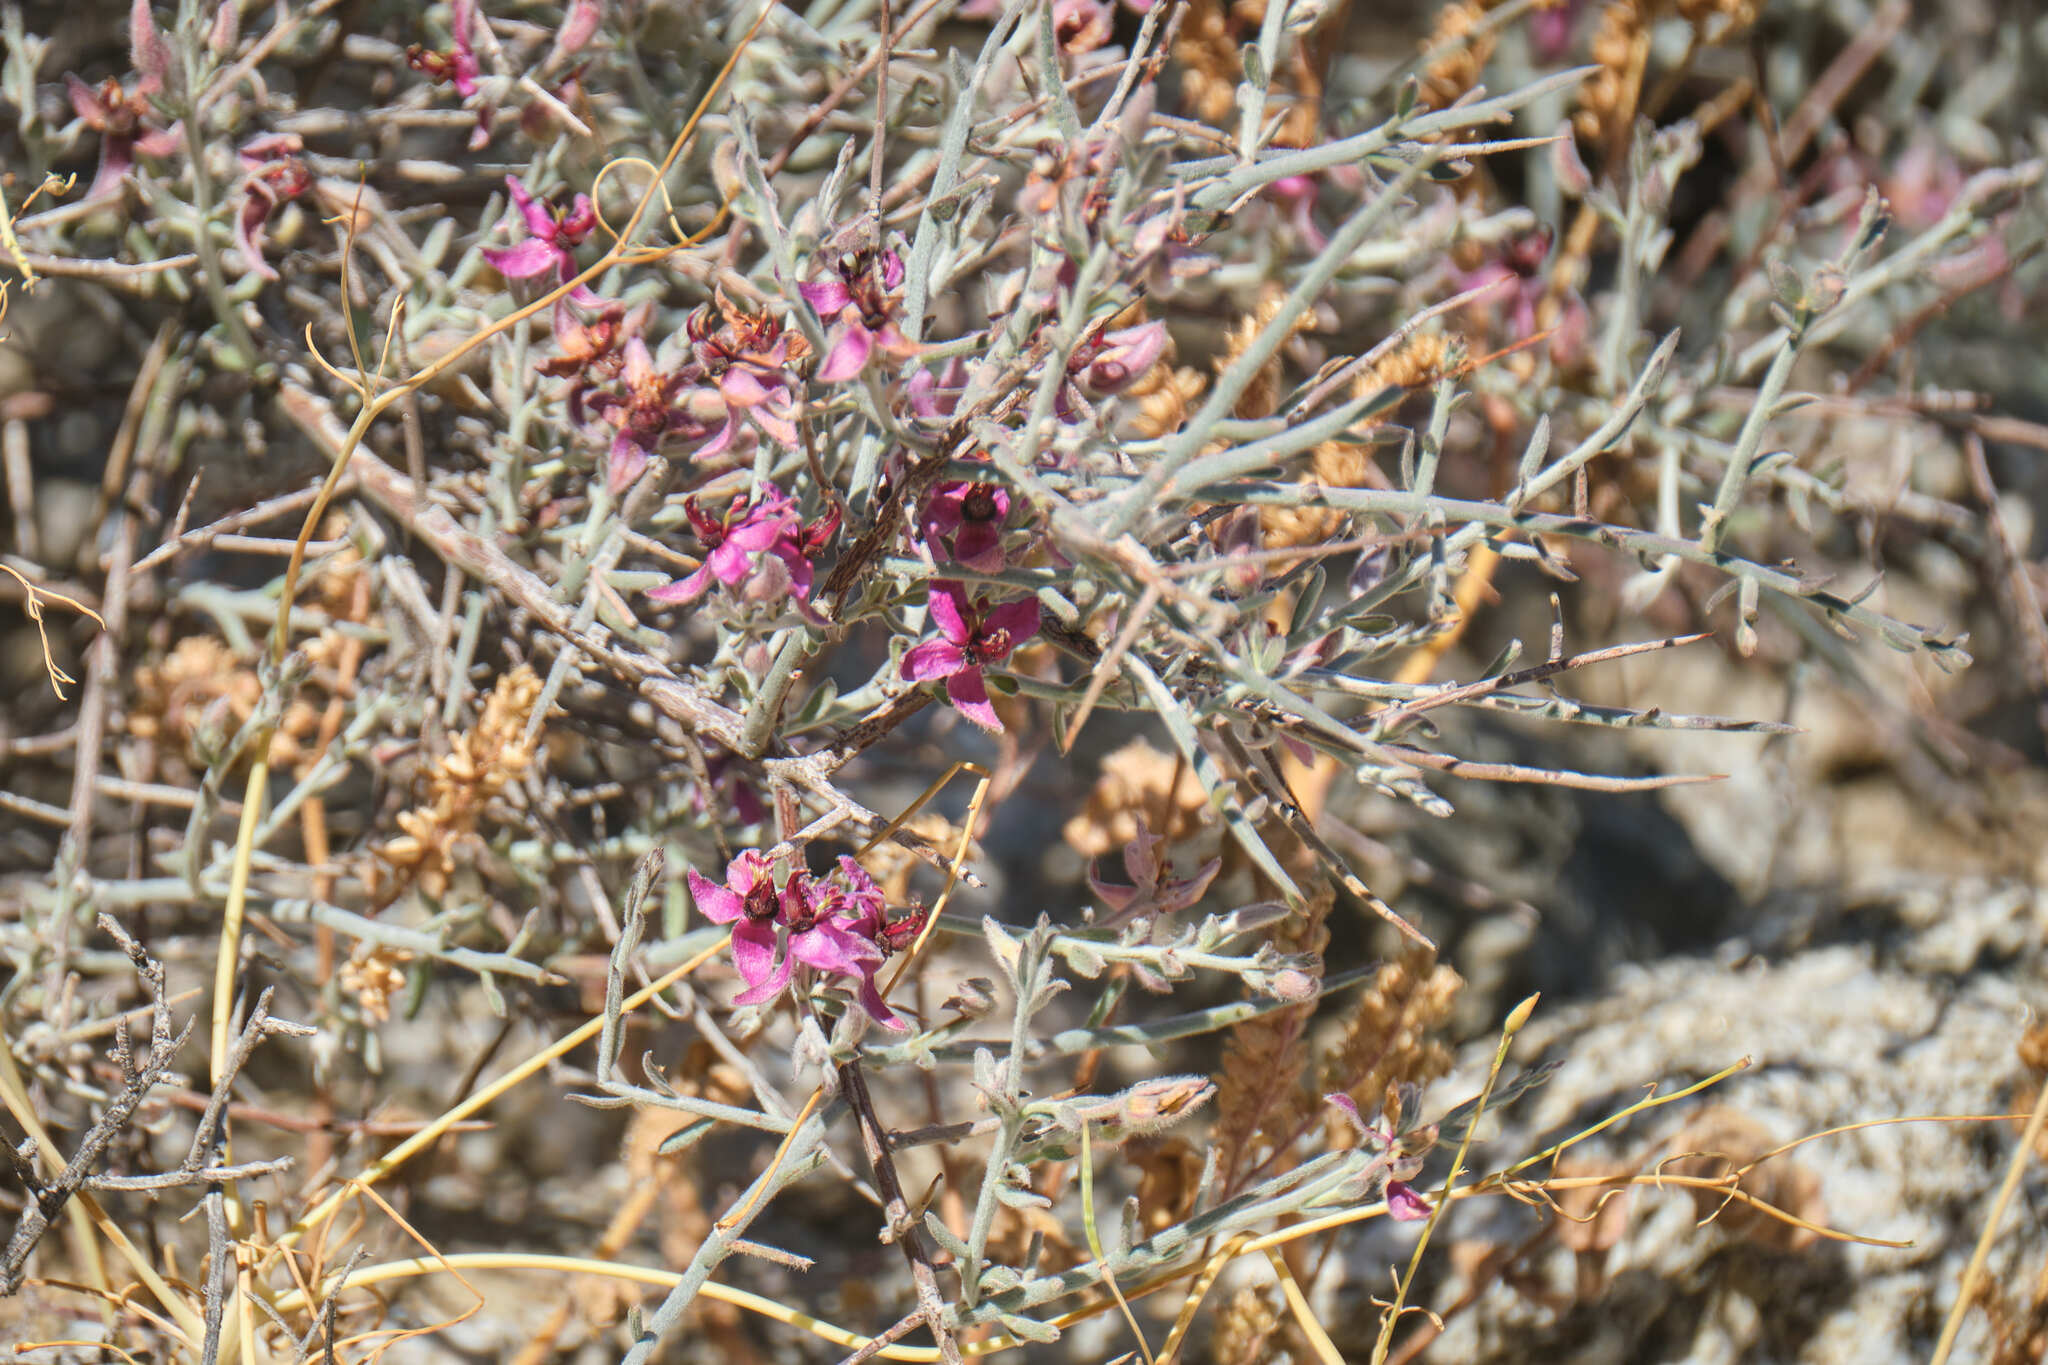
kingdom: Plantae
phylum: Tracheophyta
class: Magnoliopsida
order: Zygophyllales
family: Krameriaceae
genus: Krameria
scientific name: Krameria bicolor
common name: White ratany
